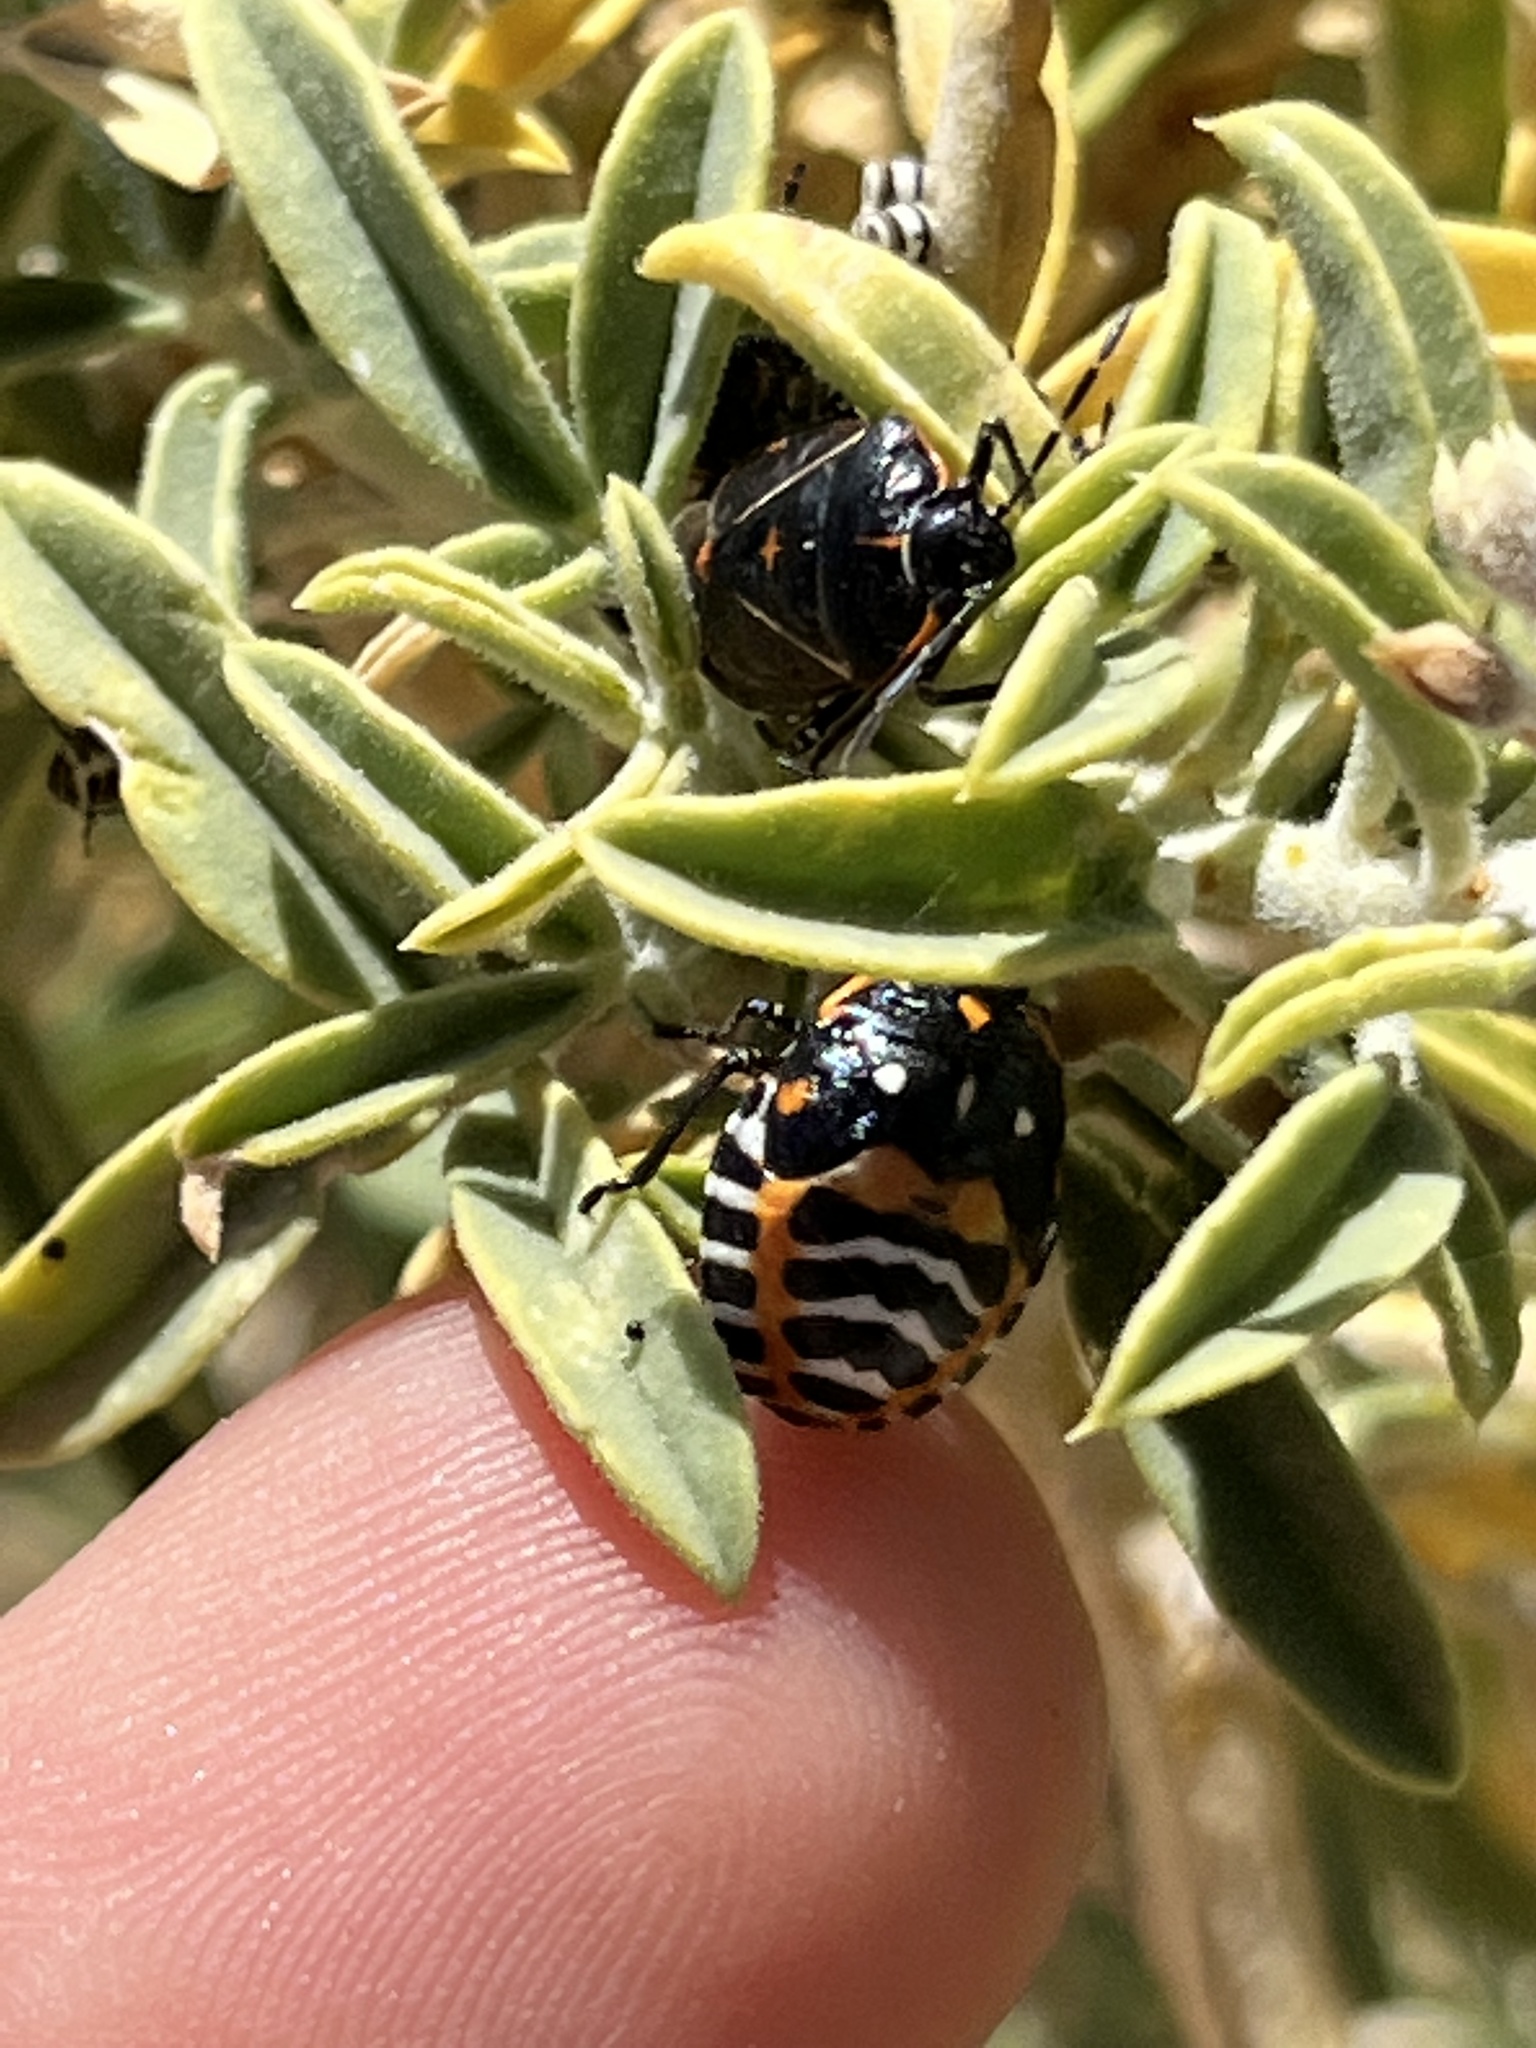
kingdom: Animalia
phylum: Arthropoda
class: Insecta
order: Hemiptera
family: Pentatomidae
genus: Murgantia
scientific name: Murgantia histrionica
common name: Harlequin bug
